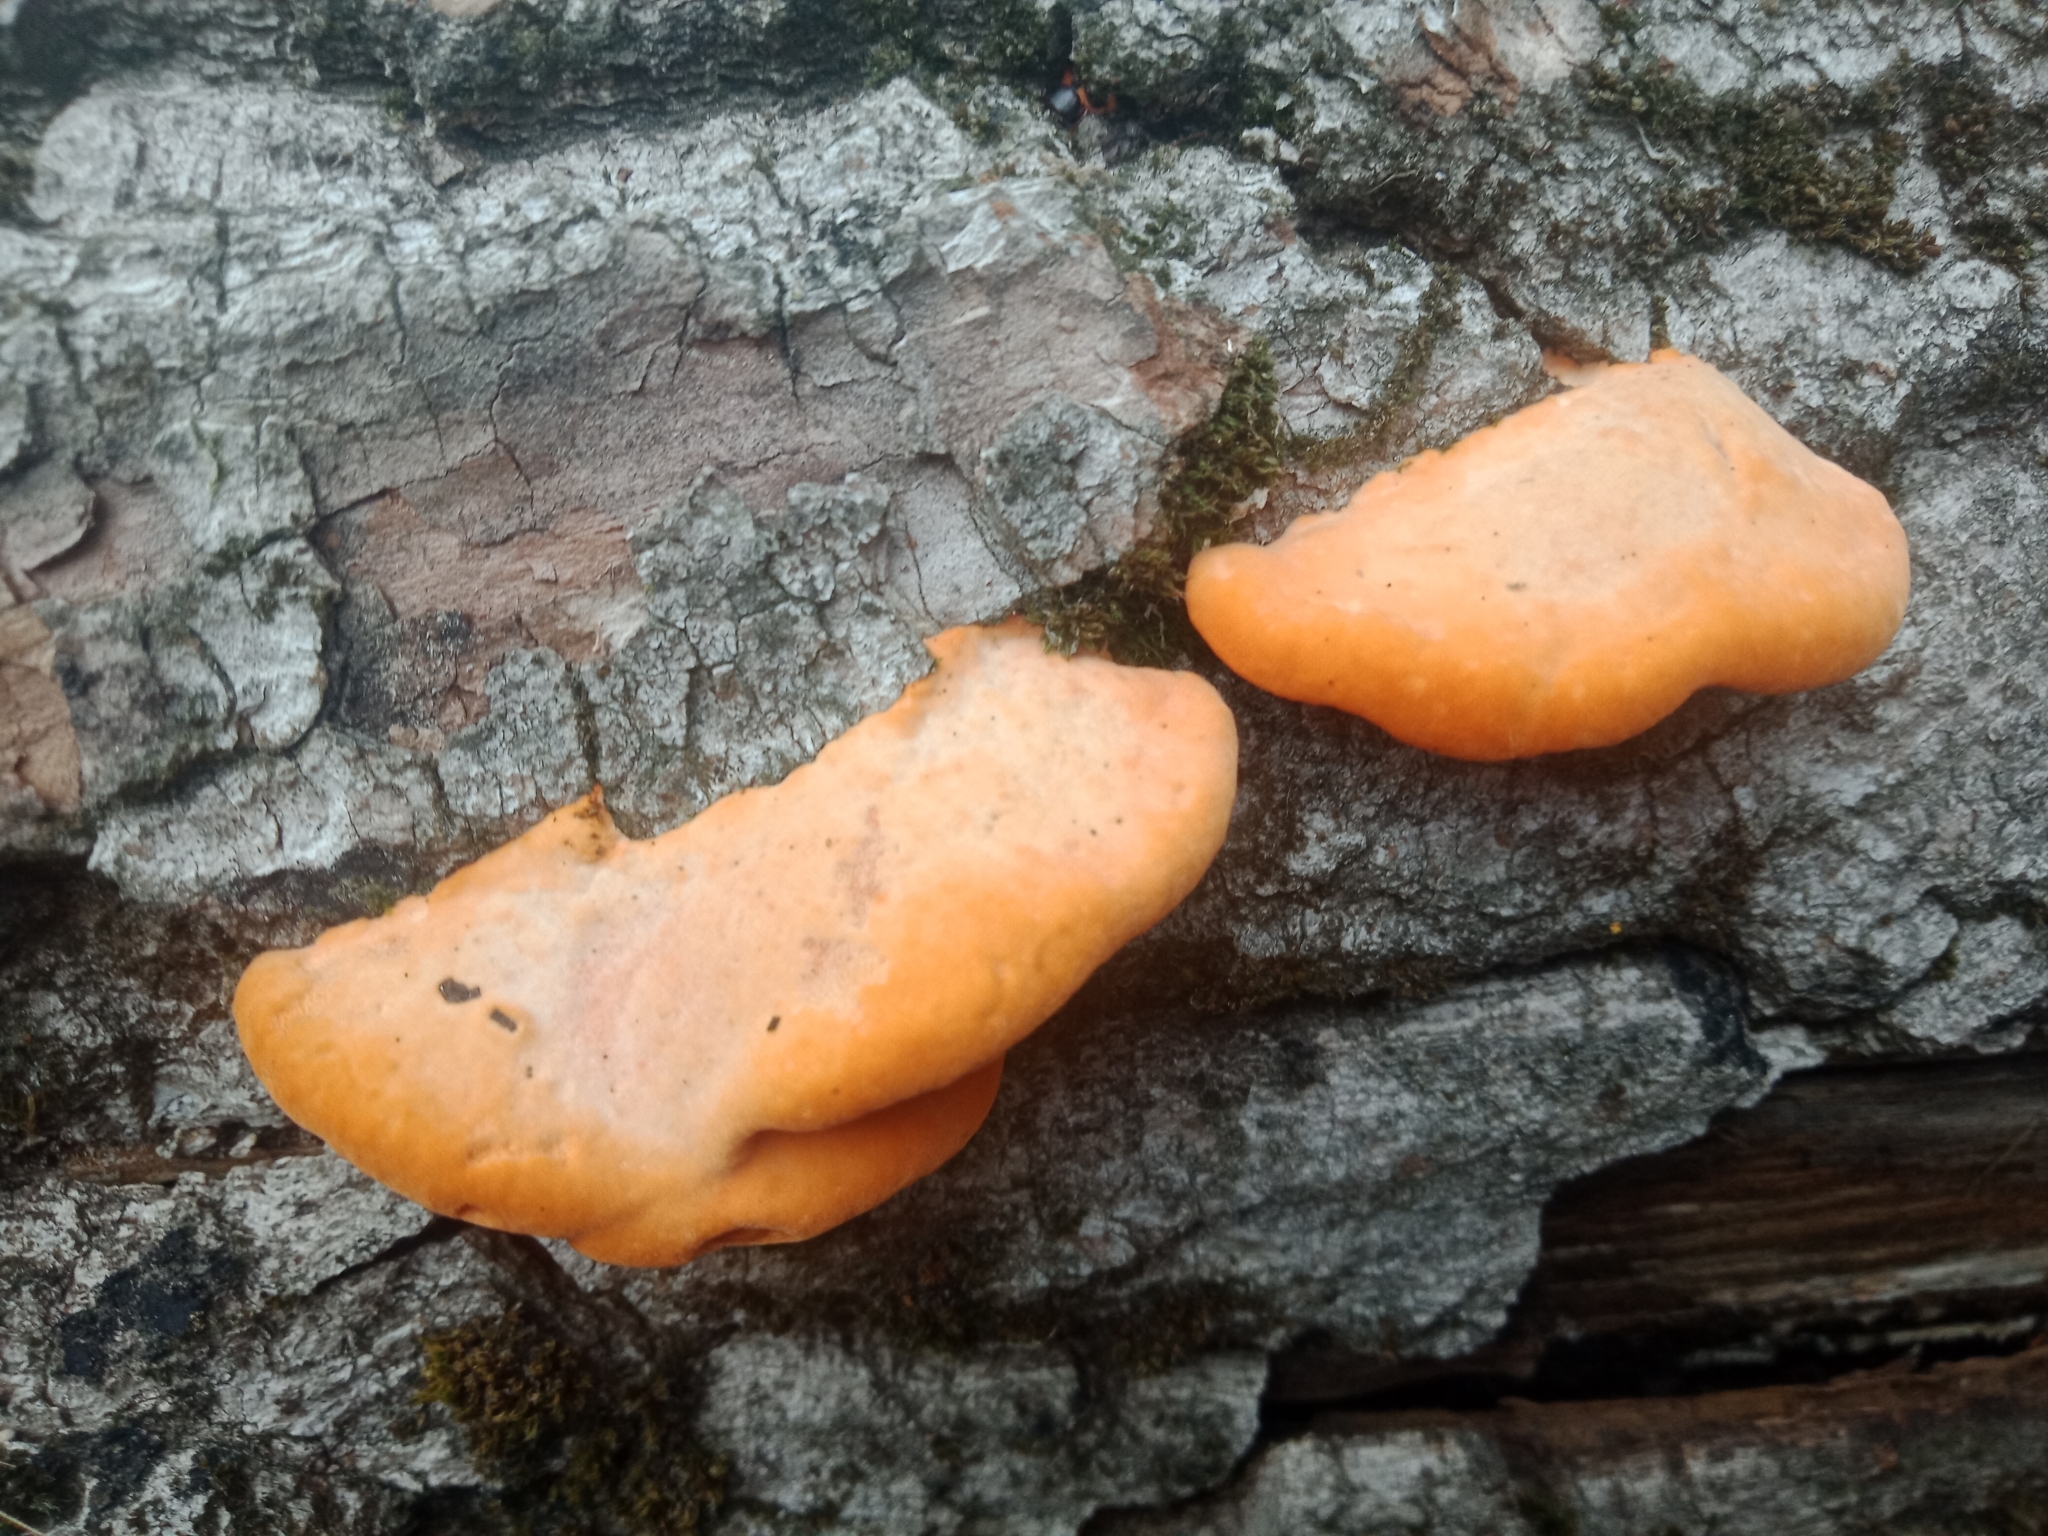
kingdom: Fungi
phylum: Basidiomycota
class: Agaricomycetes
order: Polyporales
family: Polyporaceae
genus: Trametes
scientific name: Trametes coccinea
